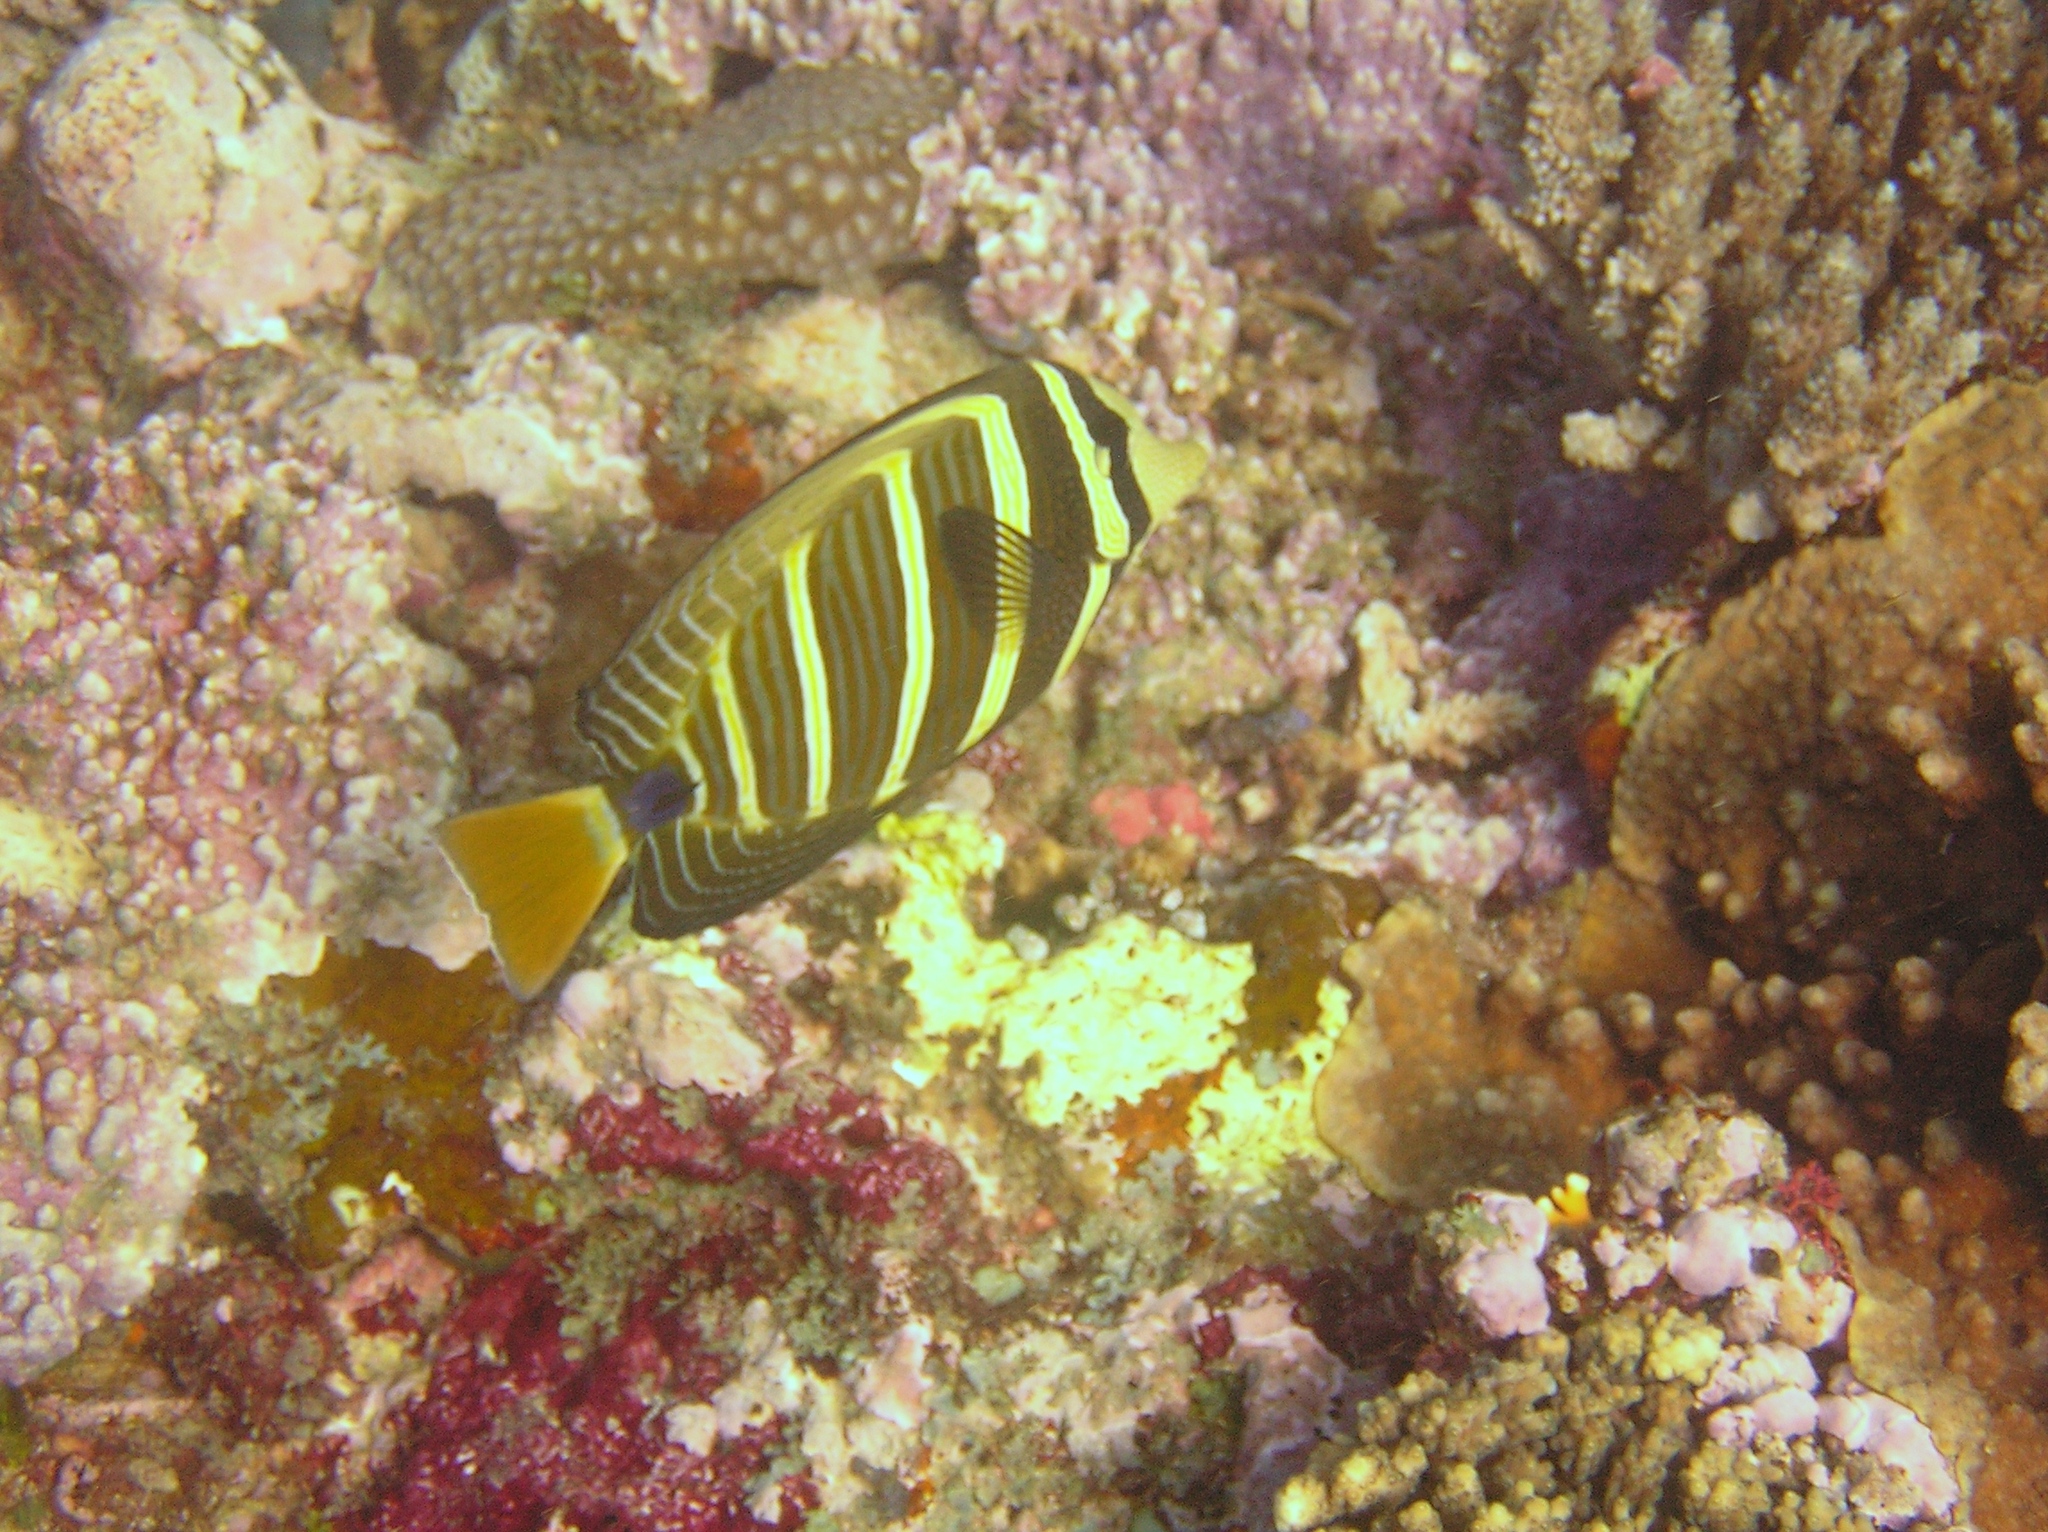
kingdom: Animalia
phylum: Chordata
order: Perciformes
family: Acanthuridae
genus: Zebrasoma
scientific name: Zebrasoma veliferum
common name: Sailfin surgeonfish
